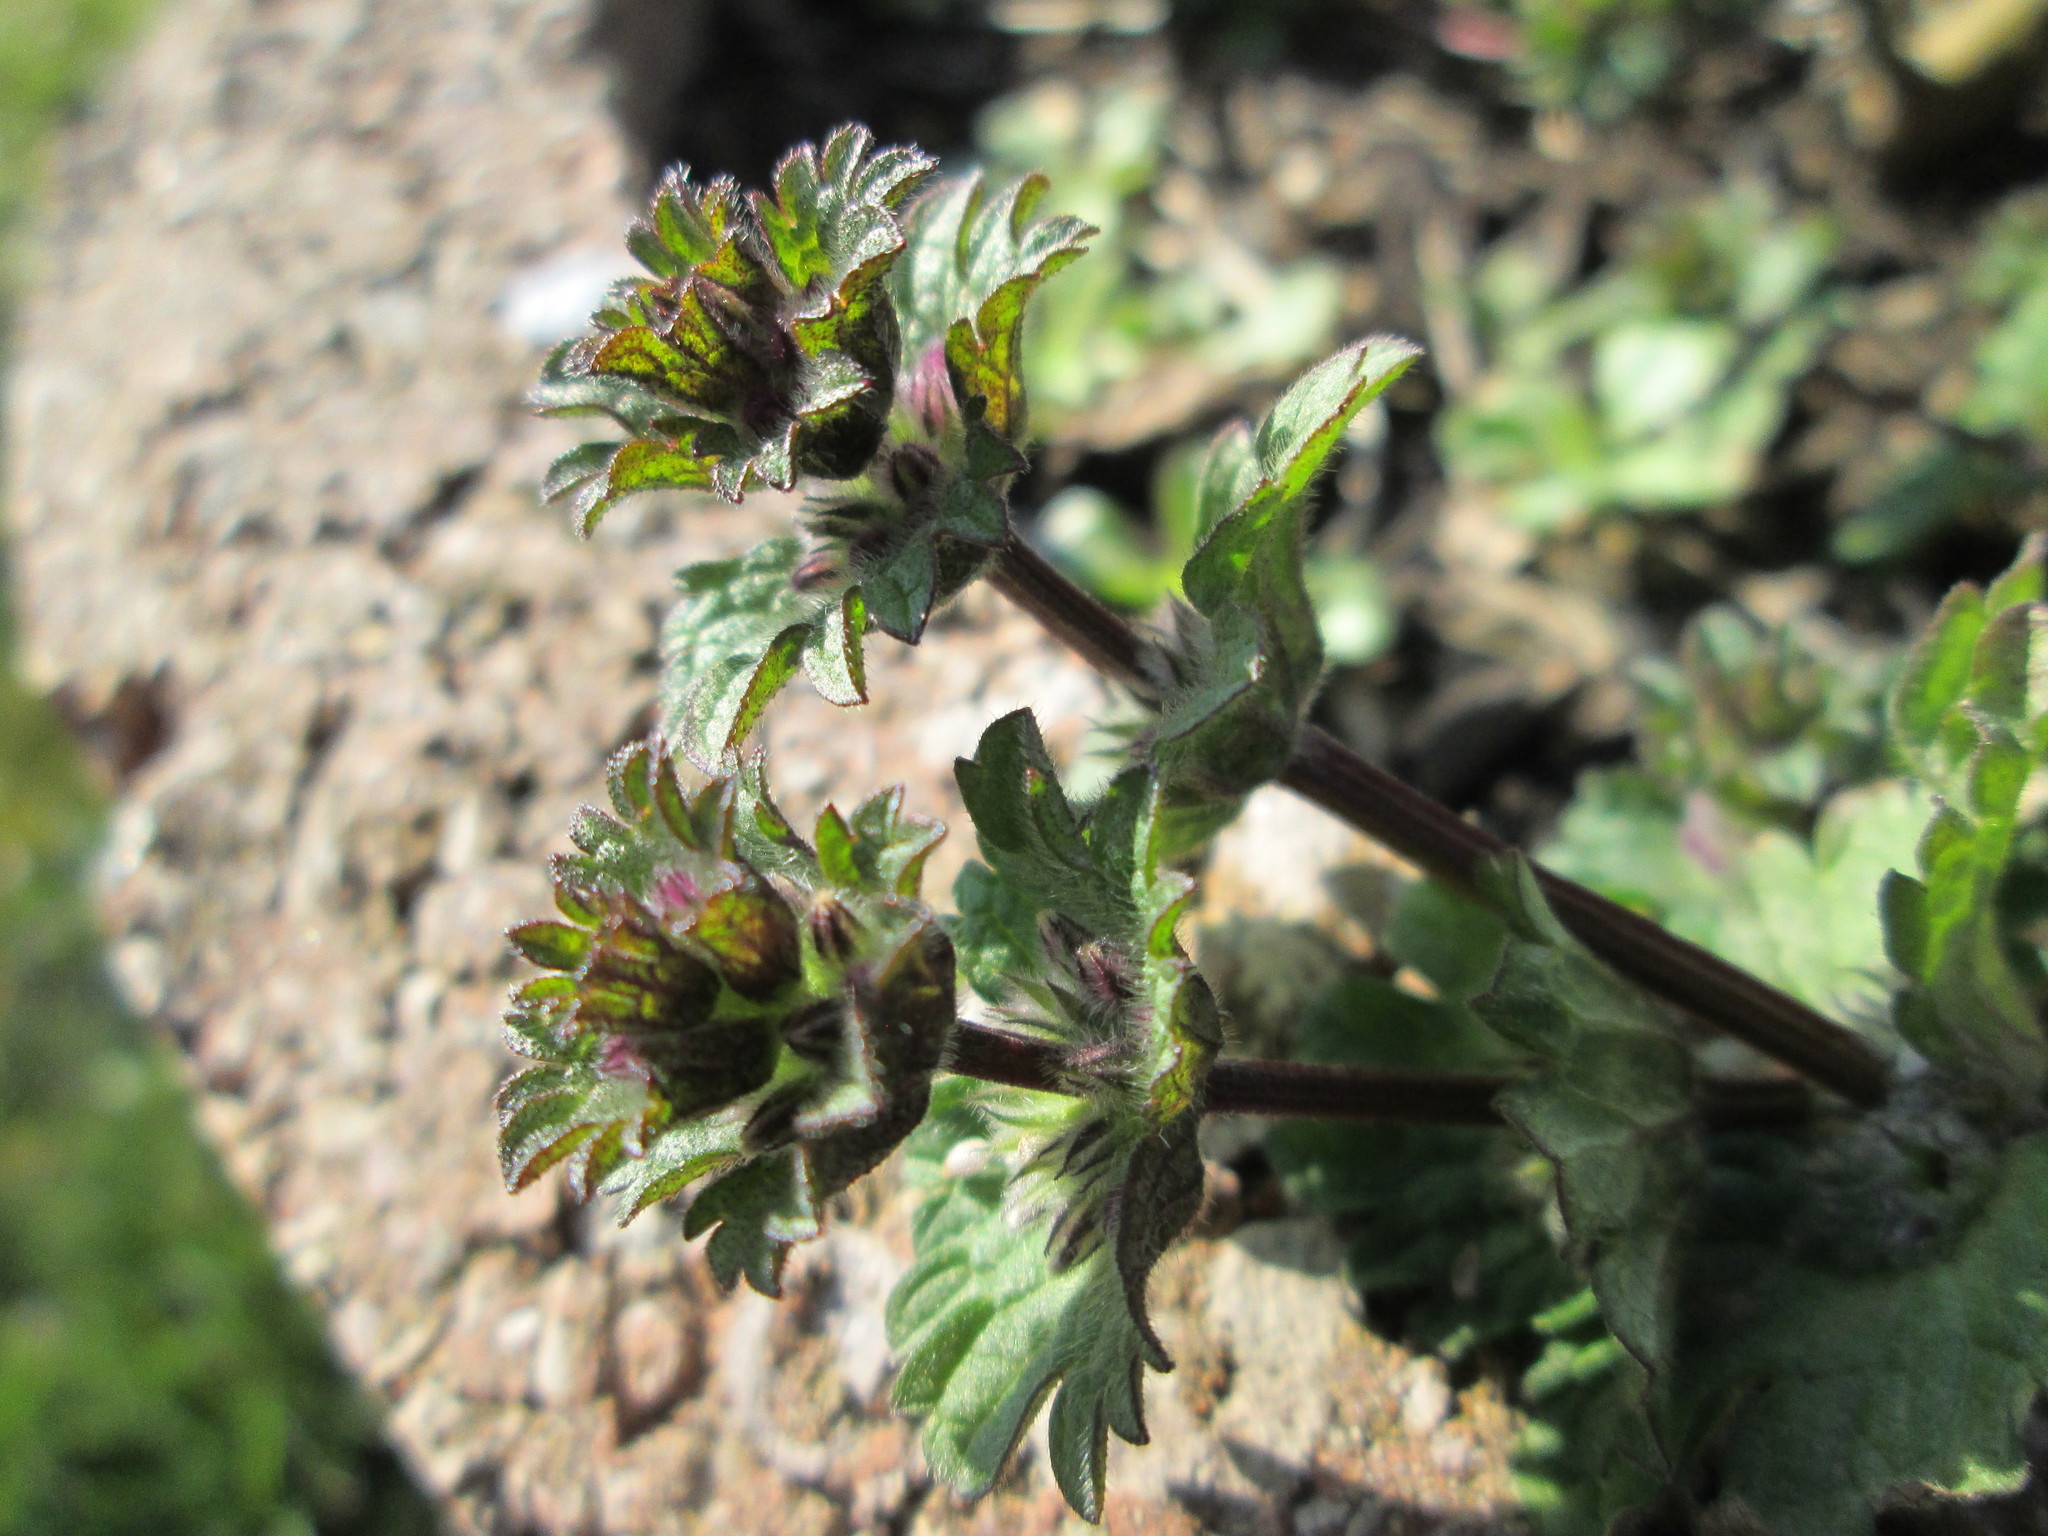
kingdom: Plantae
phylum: Tracheophyta
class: Magnoliopsida
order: Lamiales
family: Lamiaceae
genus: Lamium
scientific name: Lamium amplexicaule
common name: Henbit dead-nettle
